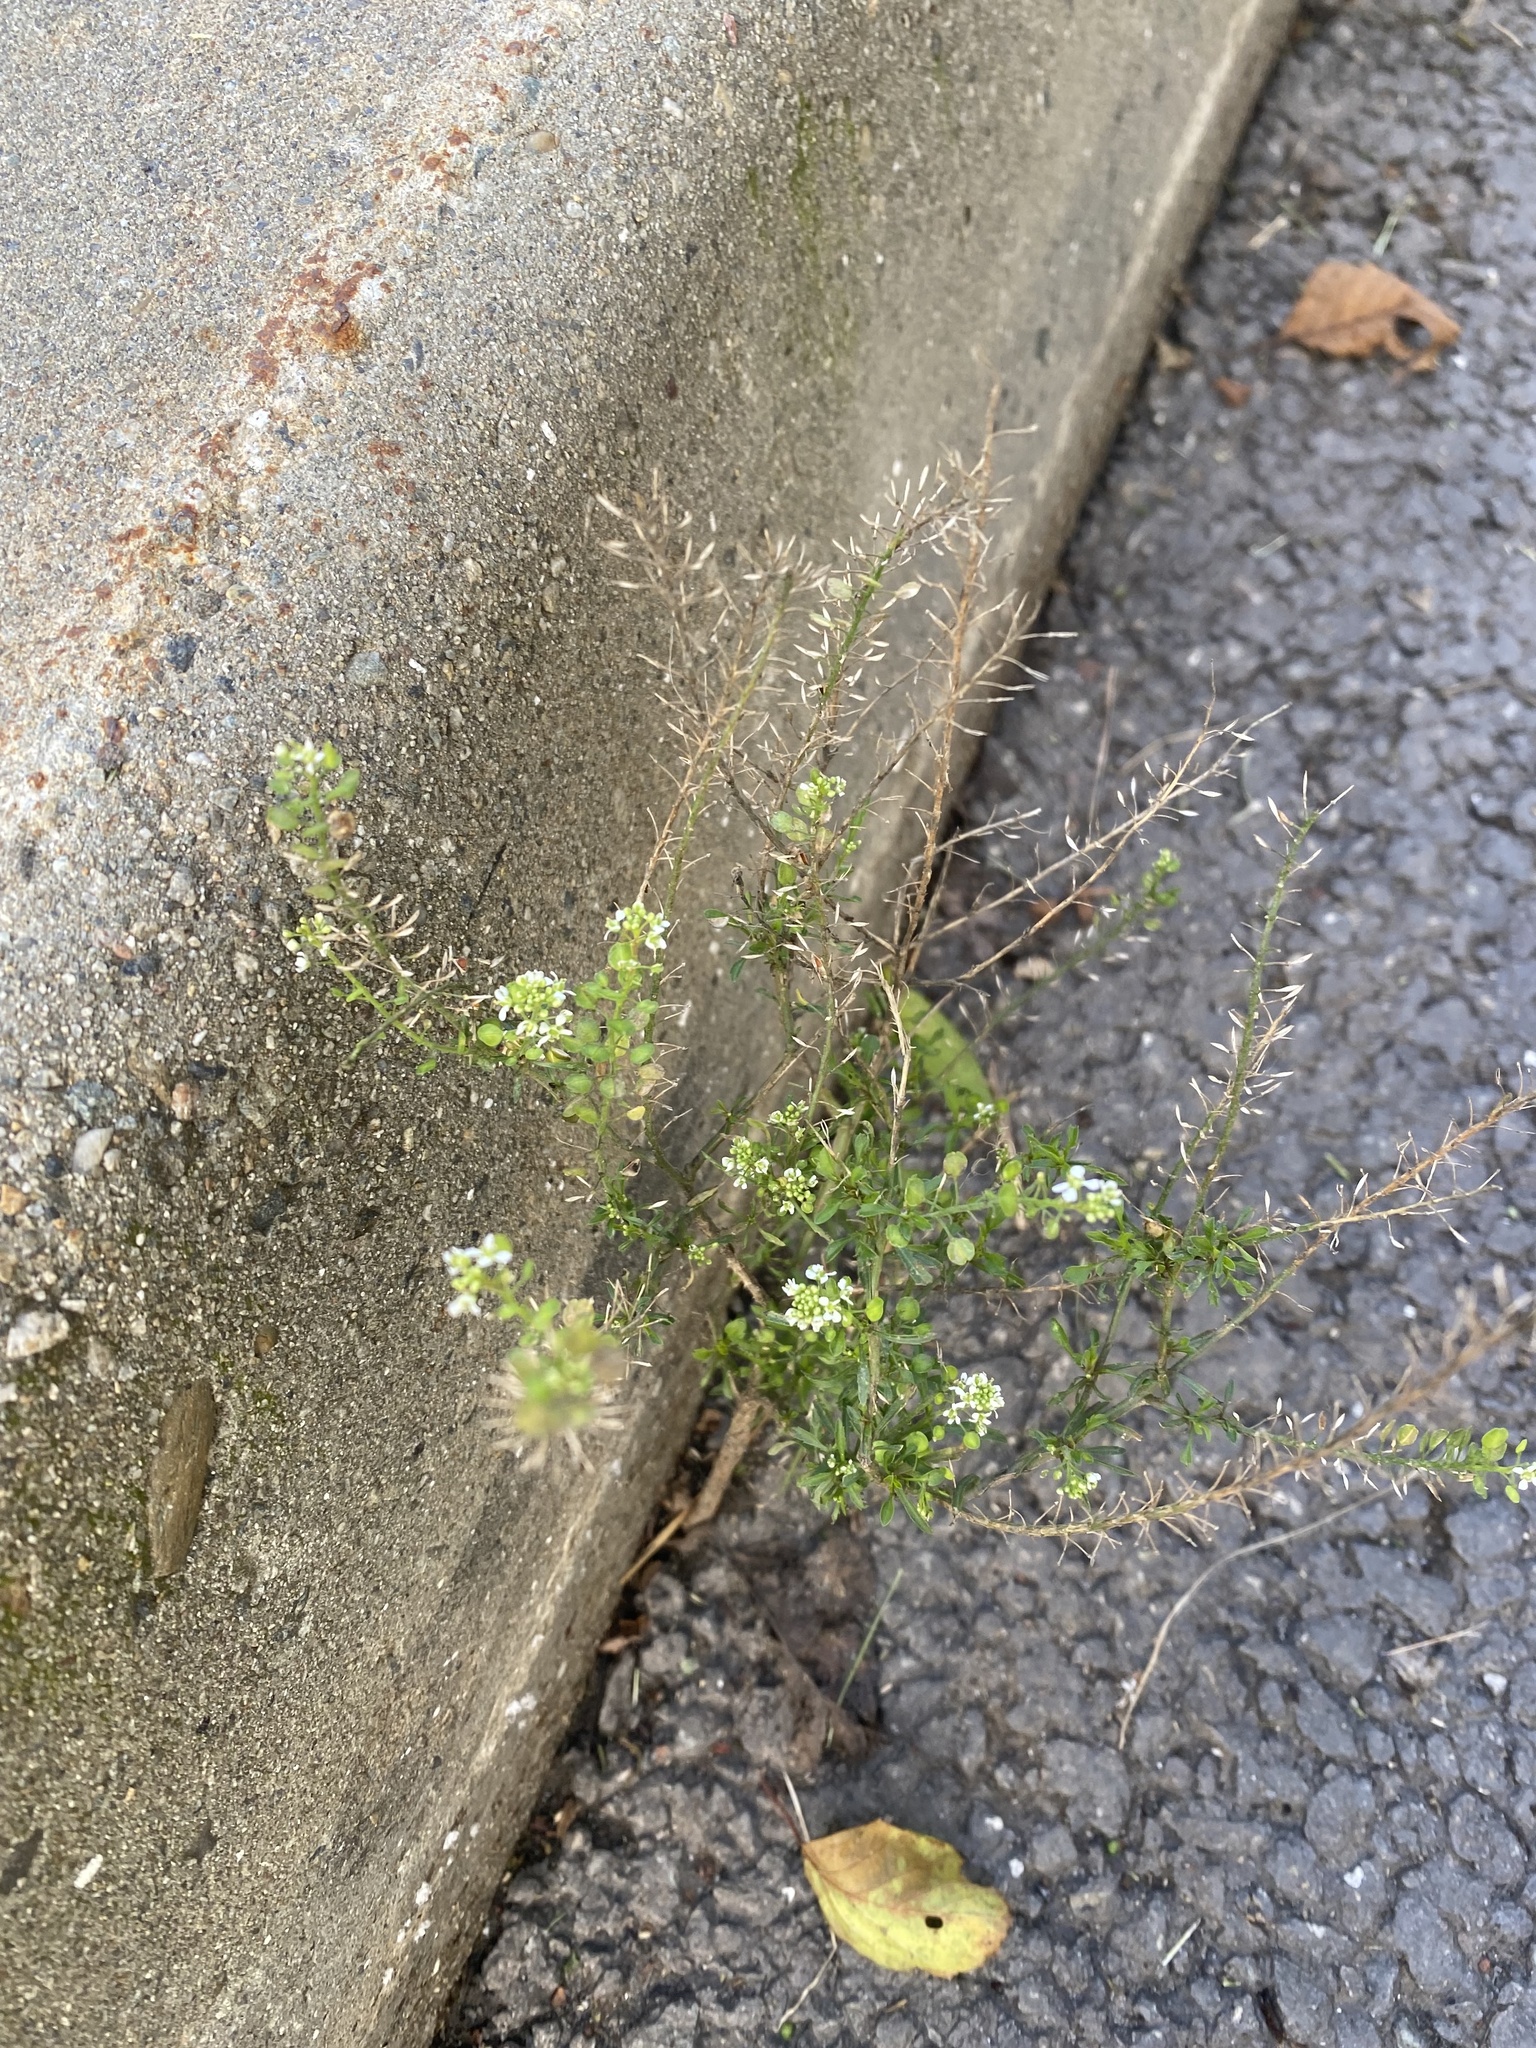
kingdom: Plantae
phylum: Tracheophyta
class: Magnoliopsida
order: Brassicales
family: Brassicaceae
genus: Lepidium
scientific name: Lepidium virginicum
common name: Least pepperwort
